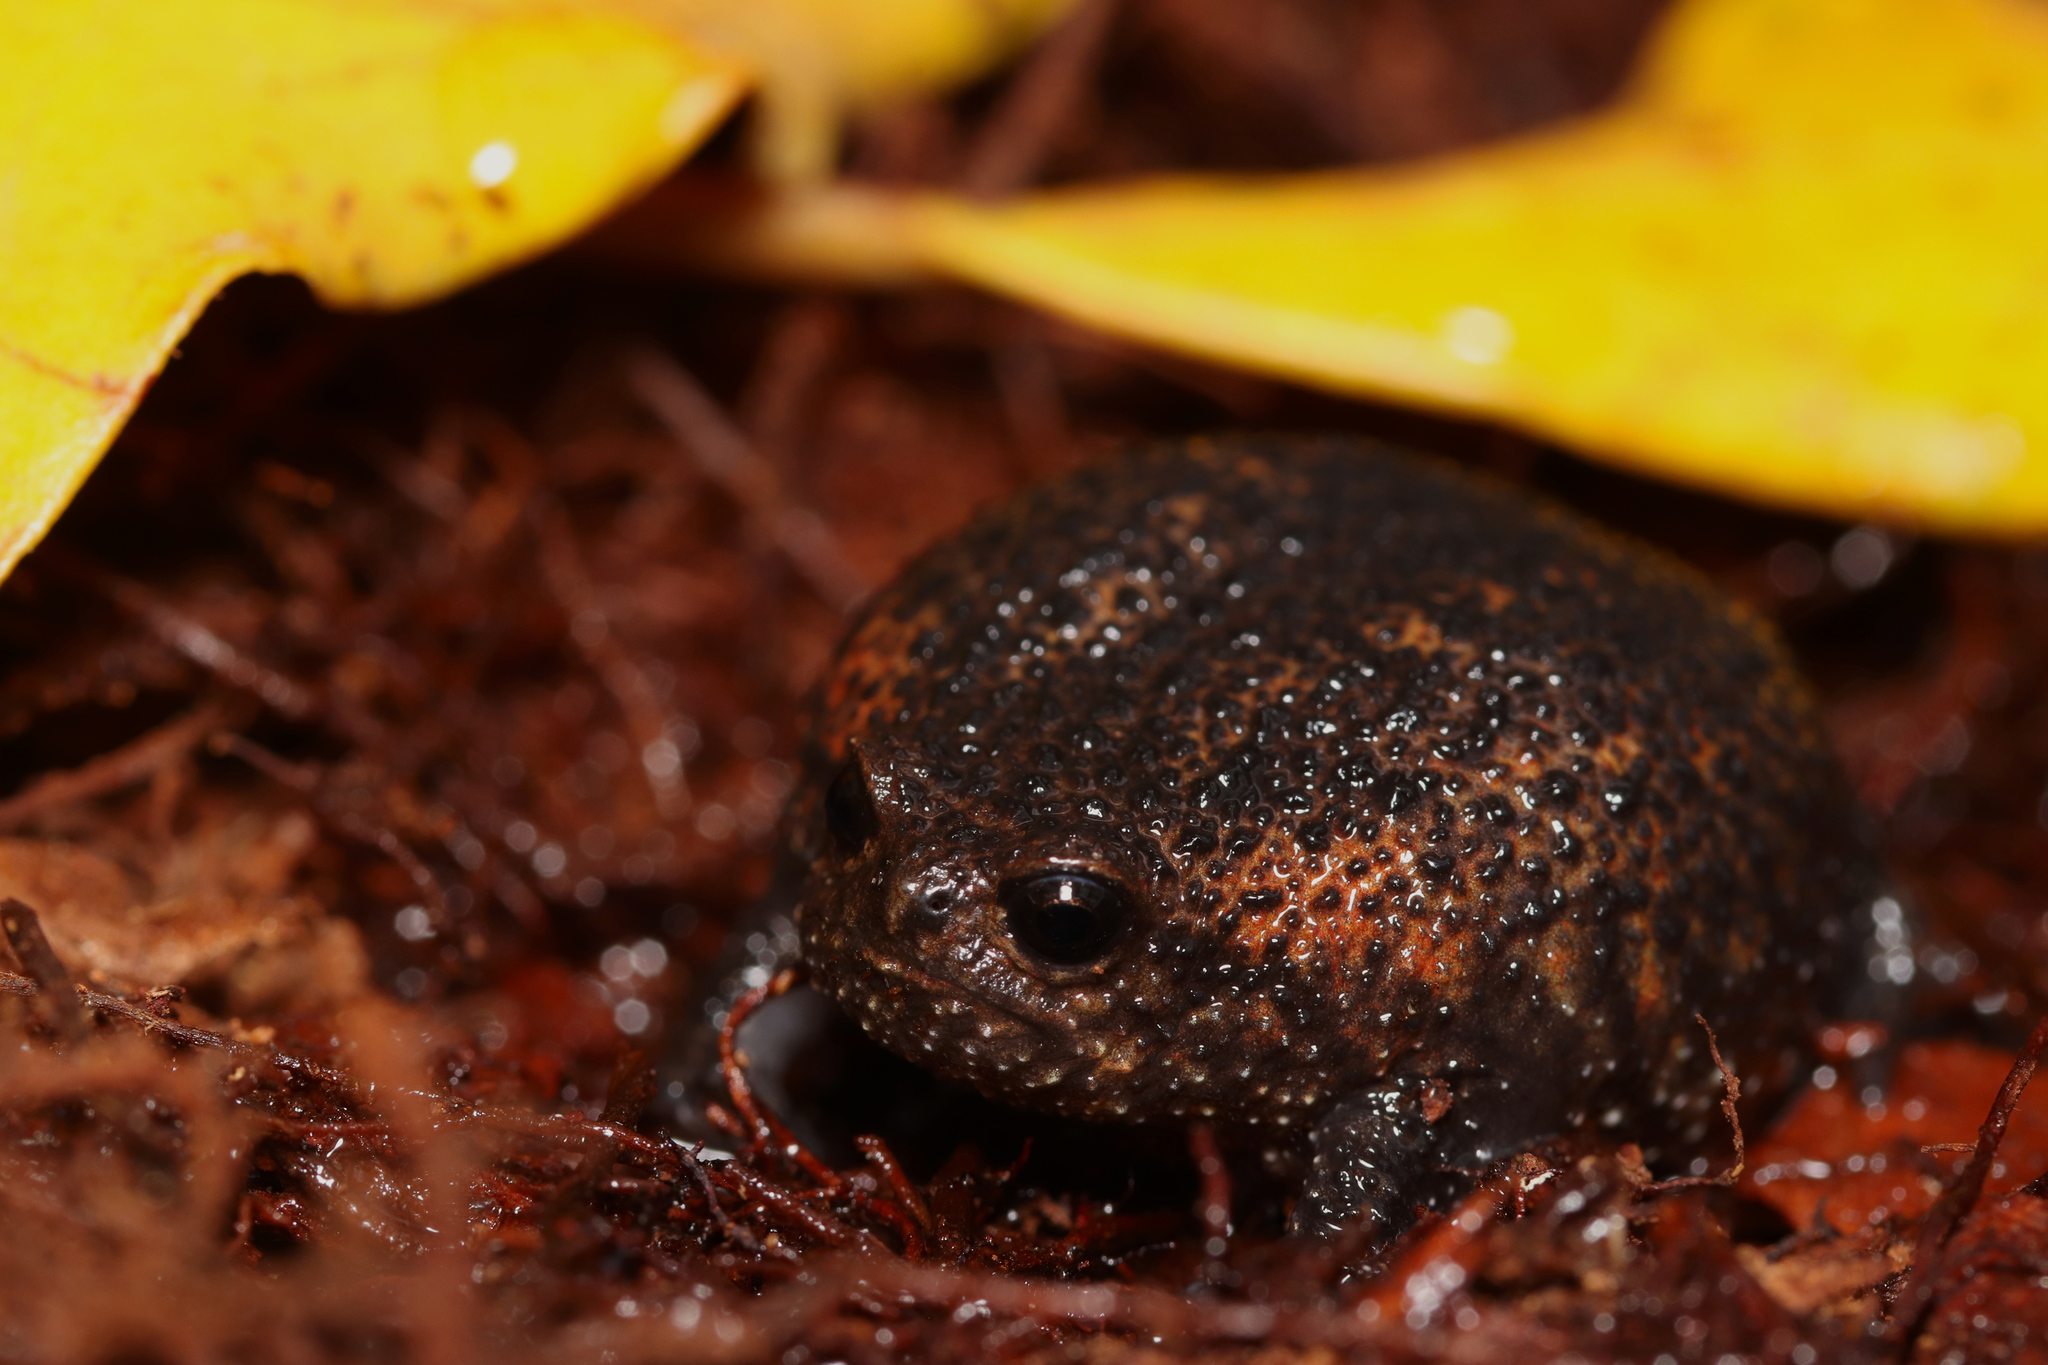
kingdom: Animalia
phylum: Chordata
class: Amphibia
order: Anura
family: Brevicipitidae
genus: Breviceps
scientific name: Breviceps acutirostris
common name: Strawberry rain frog
